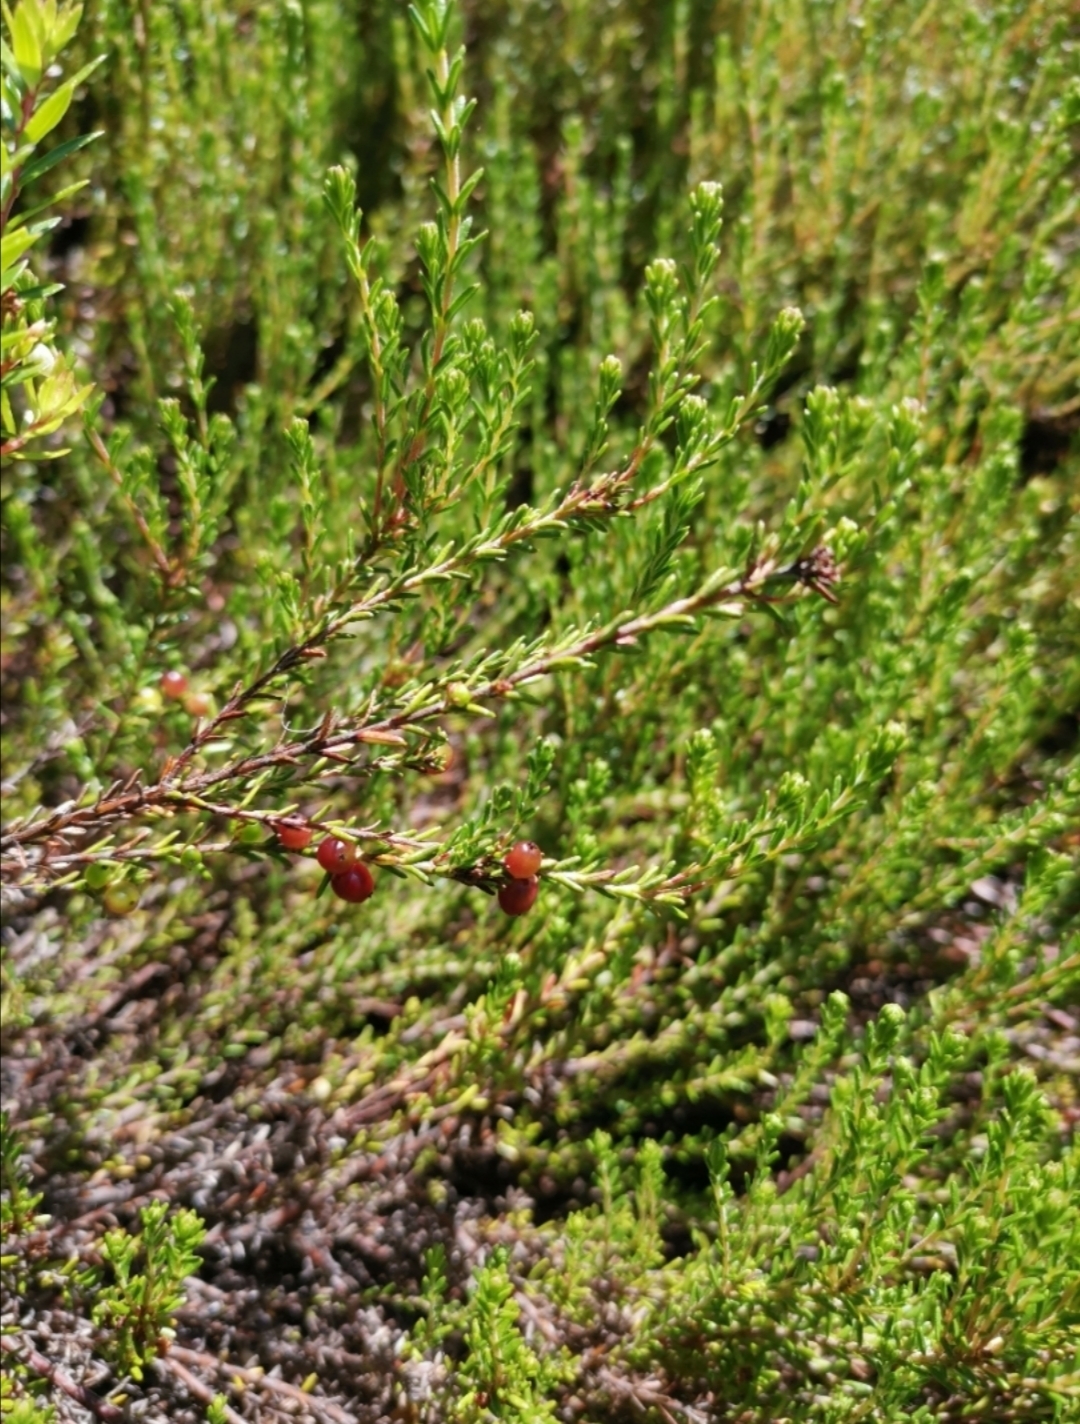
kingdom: Plantae
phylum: Tracheophyta
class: Magnoliopsida
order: Ericales
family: Ericaceae
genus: Empetrum
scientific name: Empetrum rubrum
